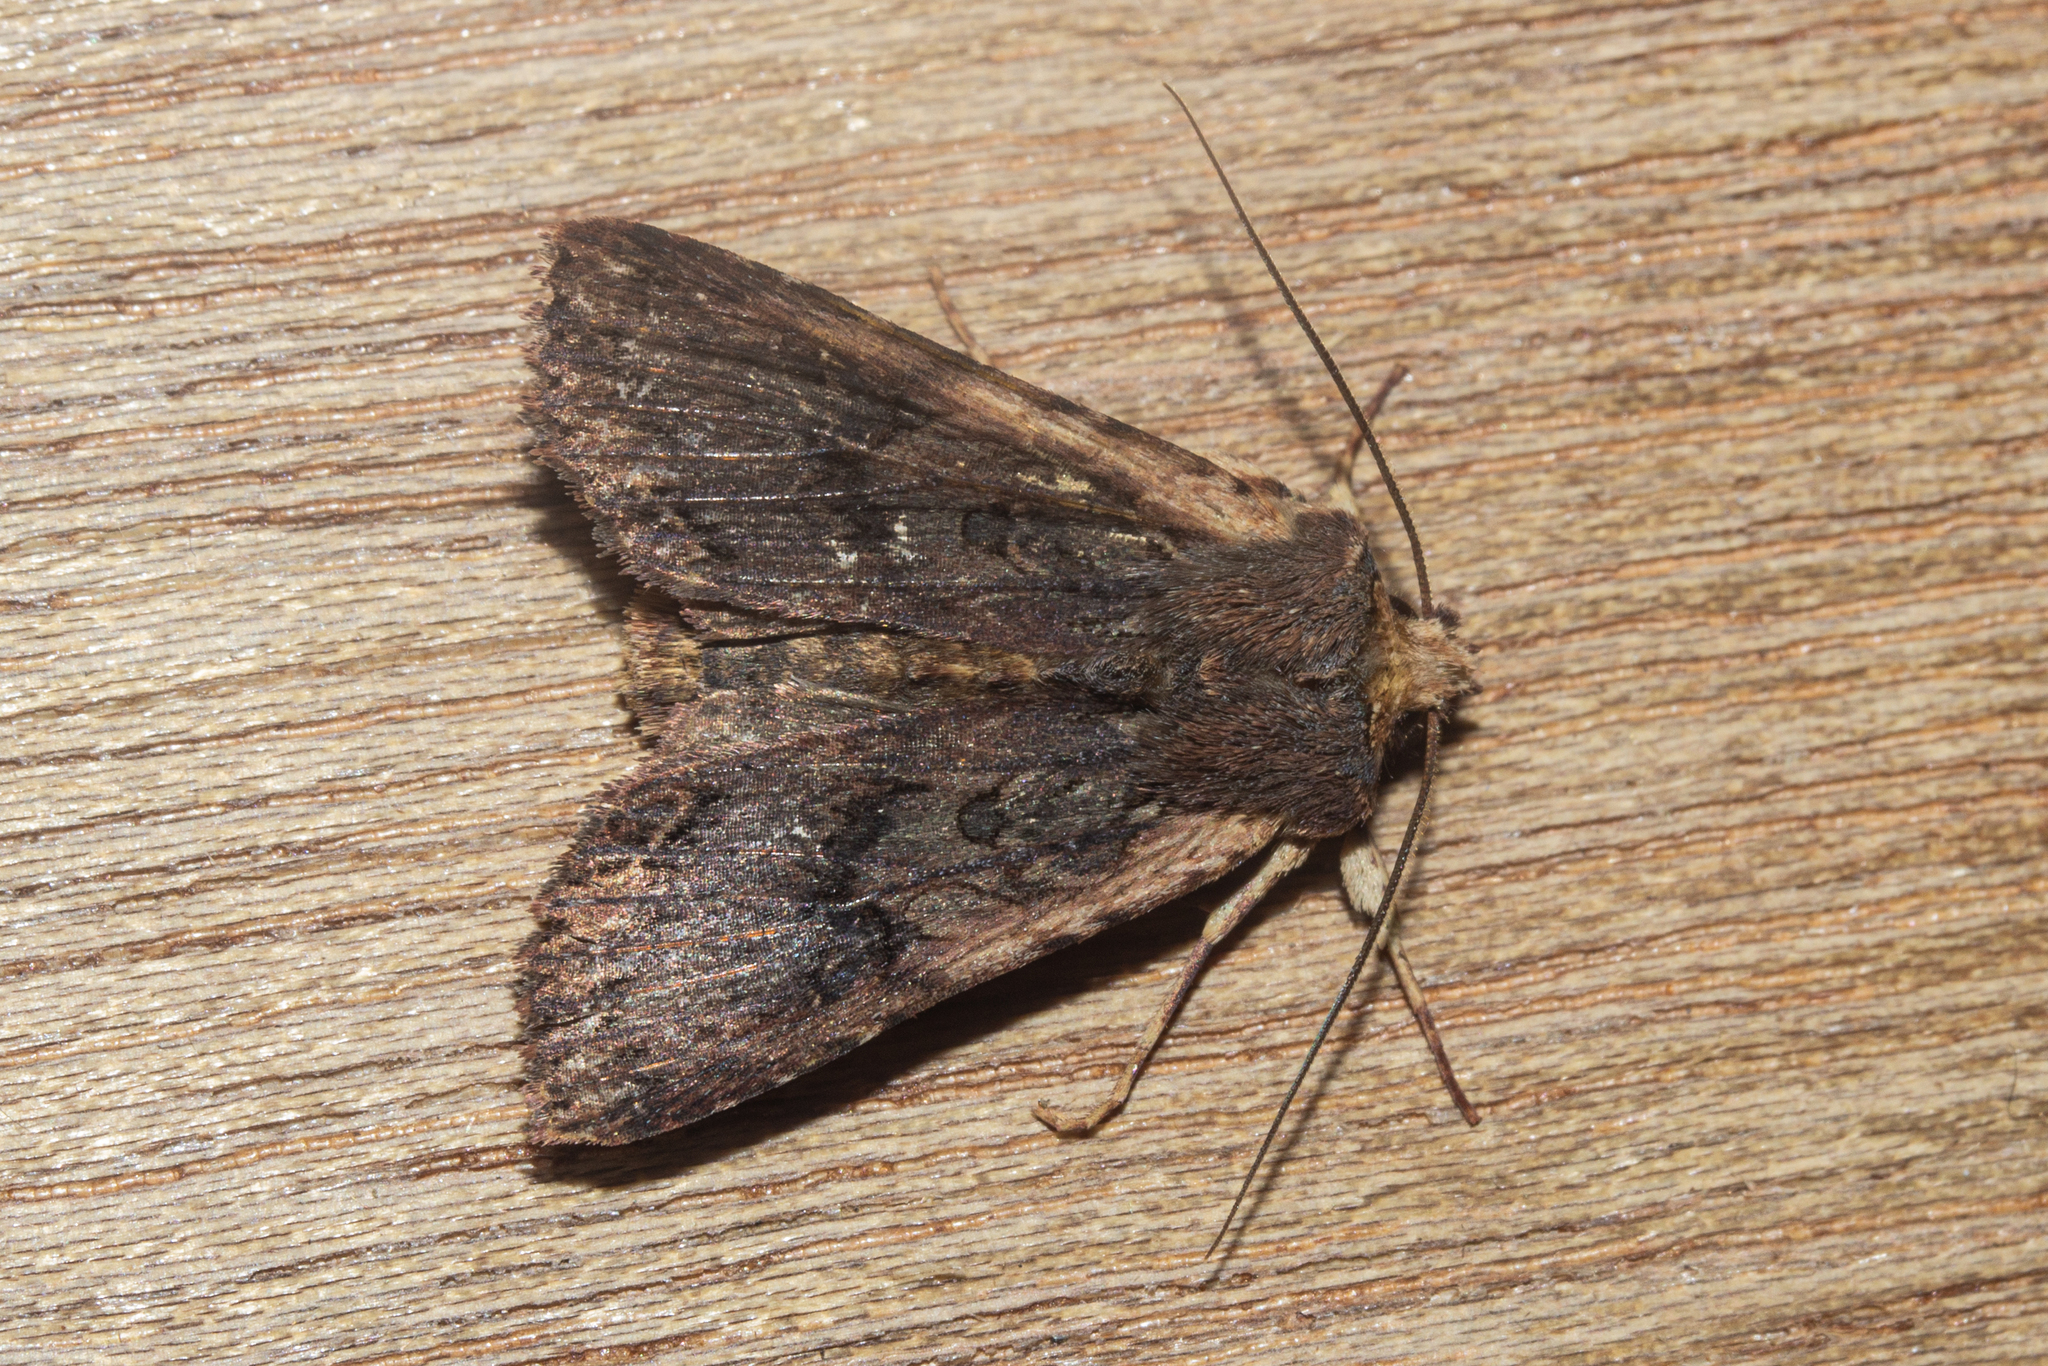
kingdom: Animalia
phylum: Arthropoda
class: Insecta
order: Lepidoptera
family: Noctuidae
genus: Meterana
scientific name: Meterana alcyone
